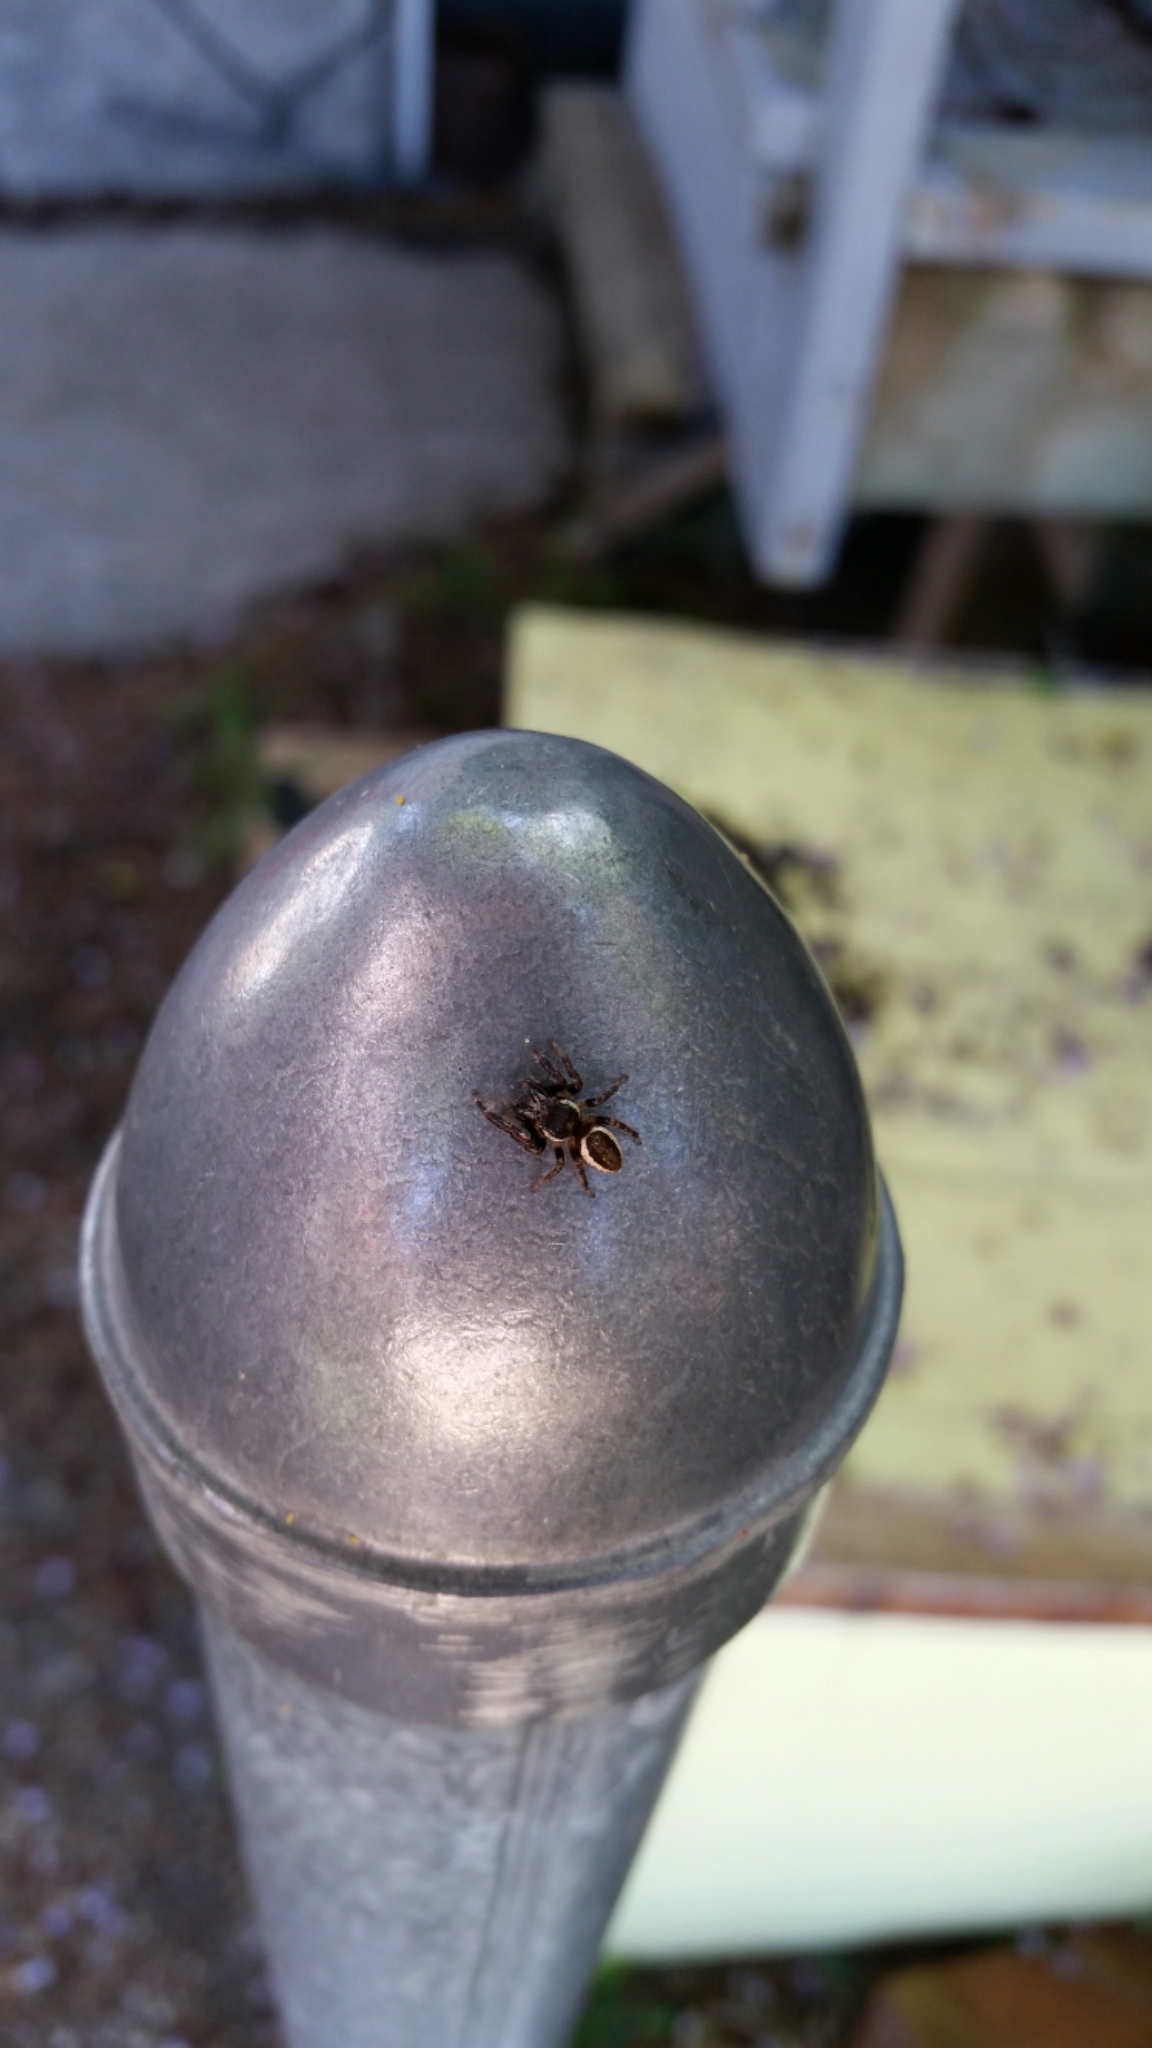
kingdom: Animalia
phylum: Arthropoda
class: Arachnida
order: Araneae
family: Salticidae
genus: Eris
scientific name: Eris militaris
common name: Bronze jumper
